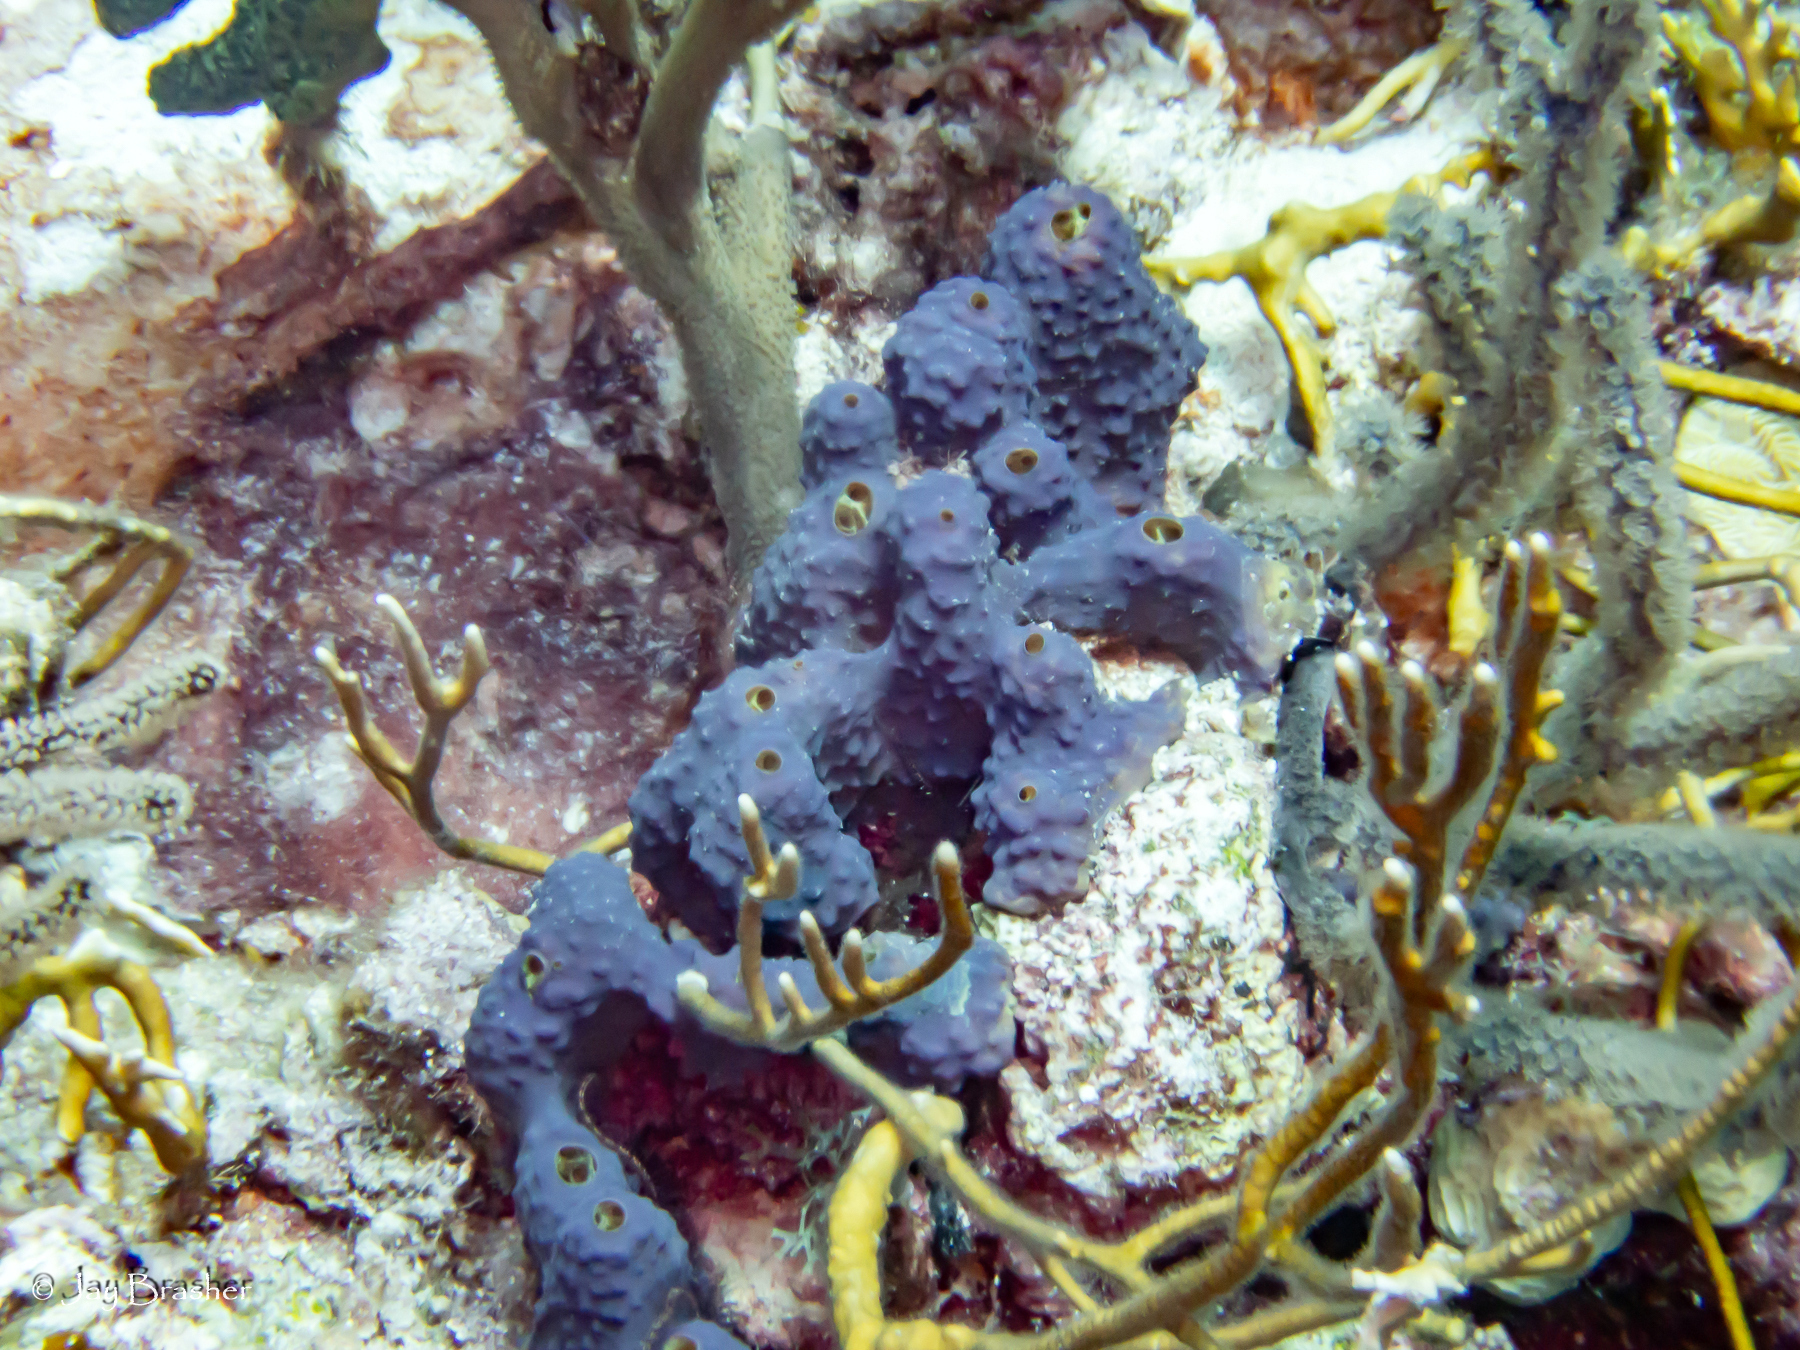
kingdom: Animalia
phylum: Porifera
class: Demospongiae
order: Verongiida
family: Aplysinidae
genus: Aiolochroia
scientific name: Aiolochroia crassa
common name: Branching tube sponge
